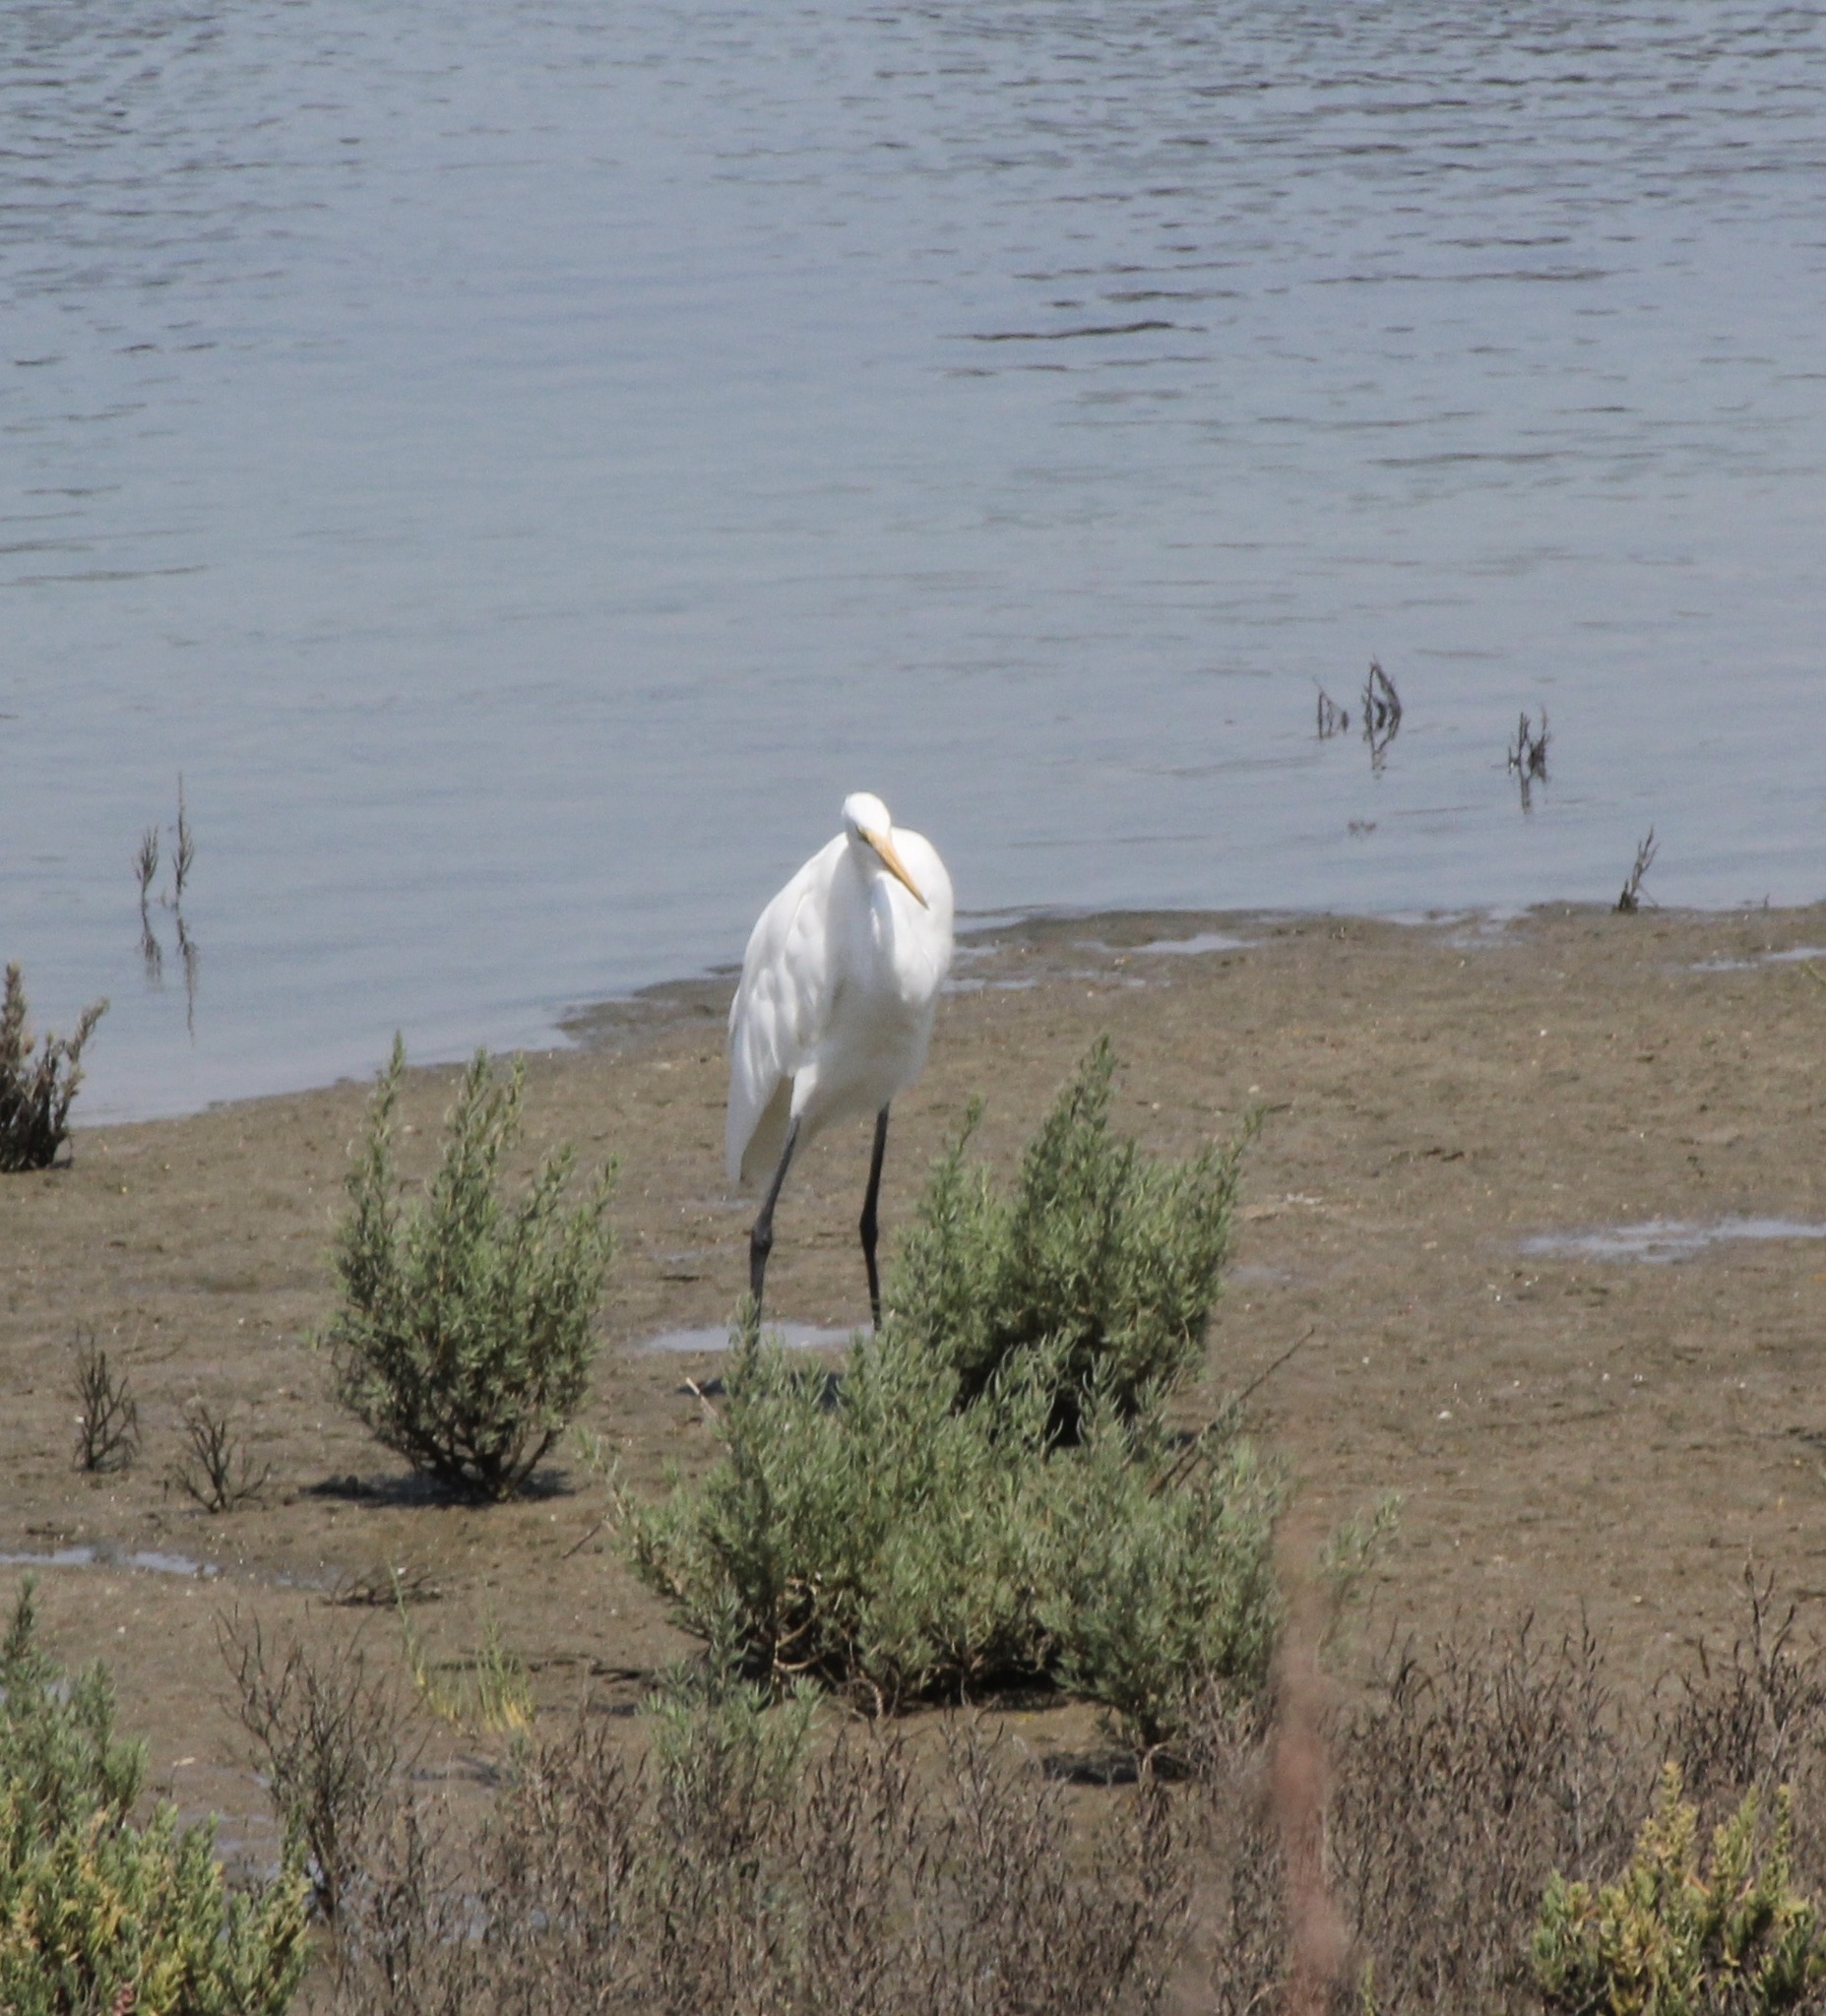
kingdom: Animalia
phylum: Chordata
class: Aves
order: Pelecaniformes
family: Ardeidae
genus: Ardea
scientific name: Ardea alba
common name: Great egret
